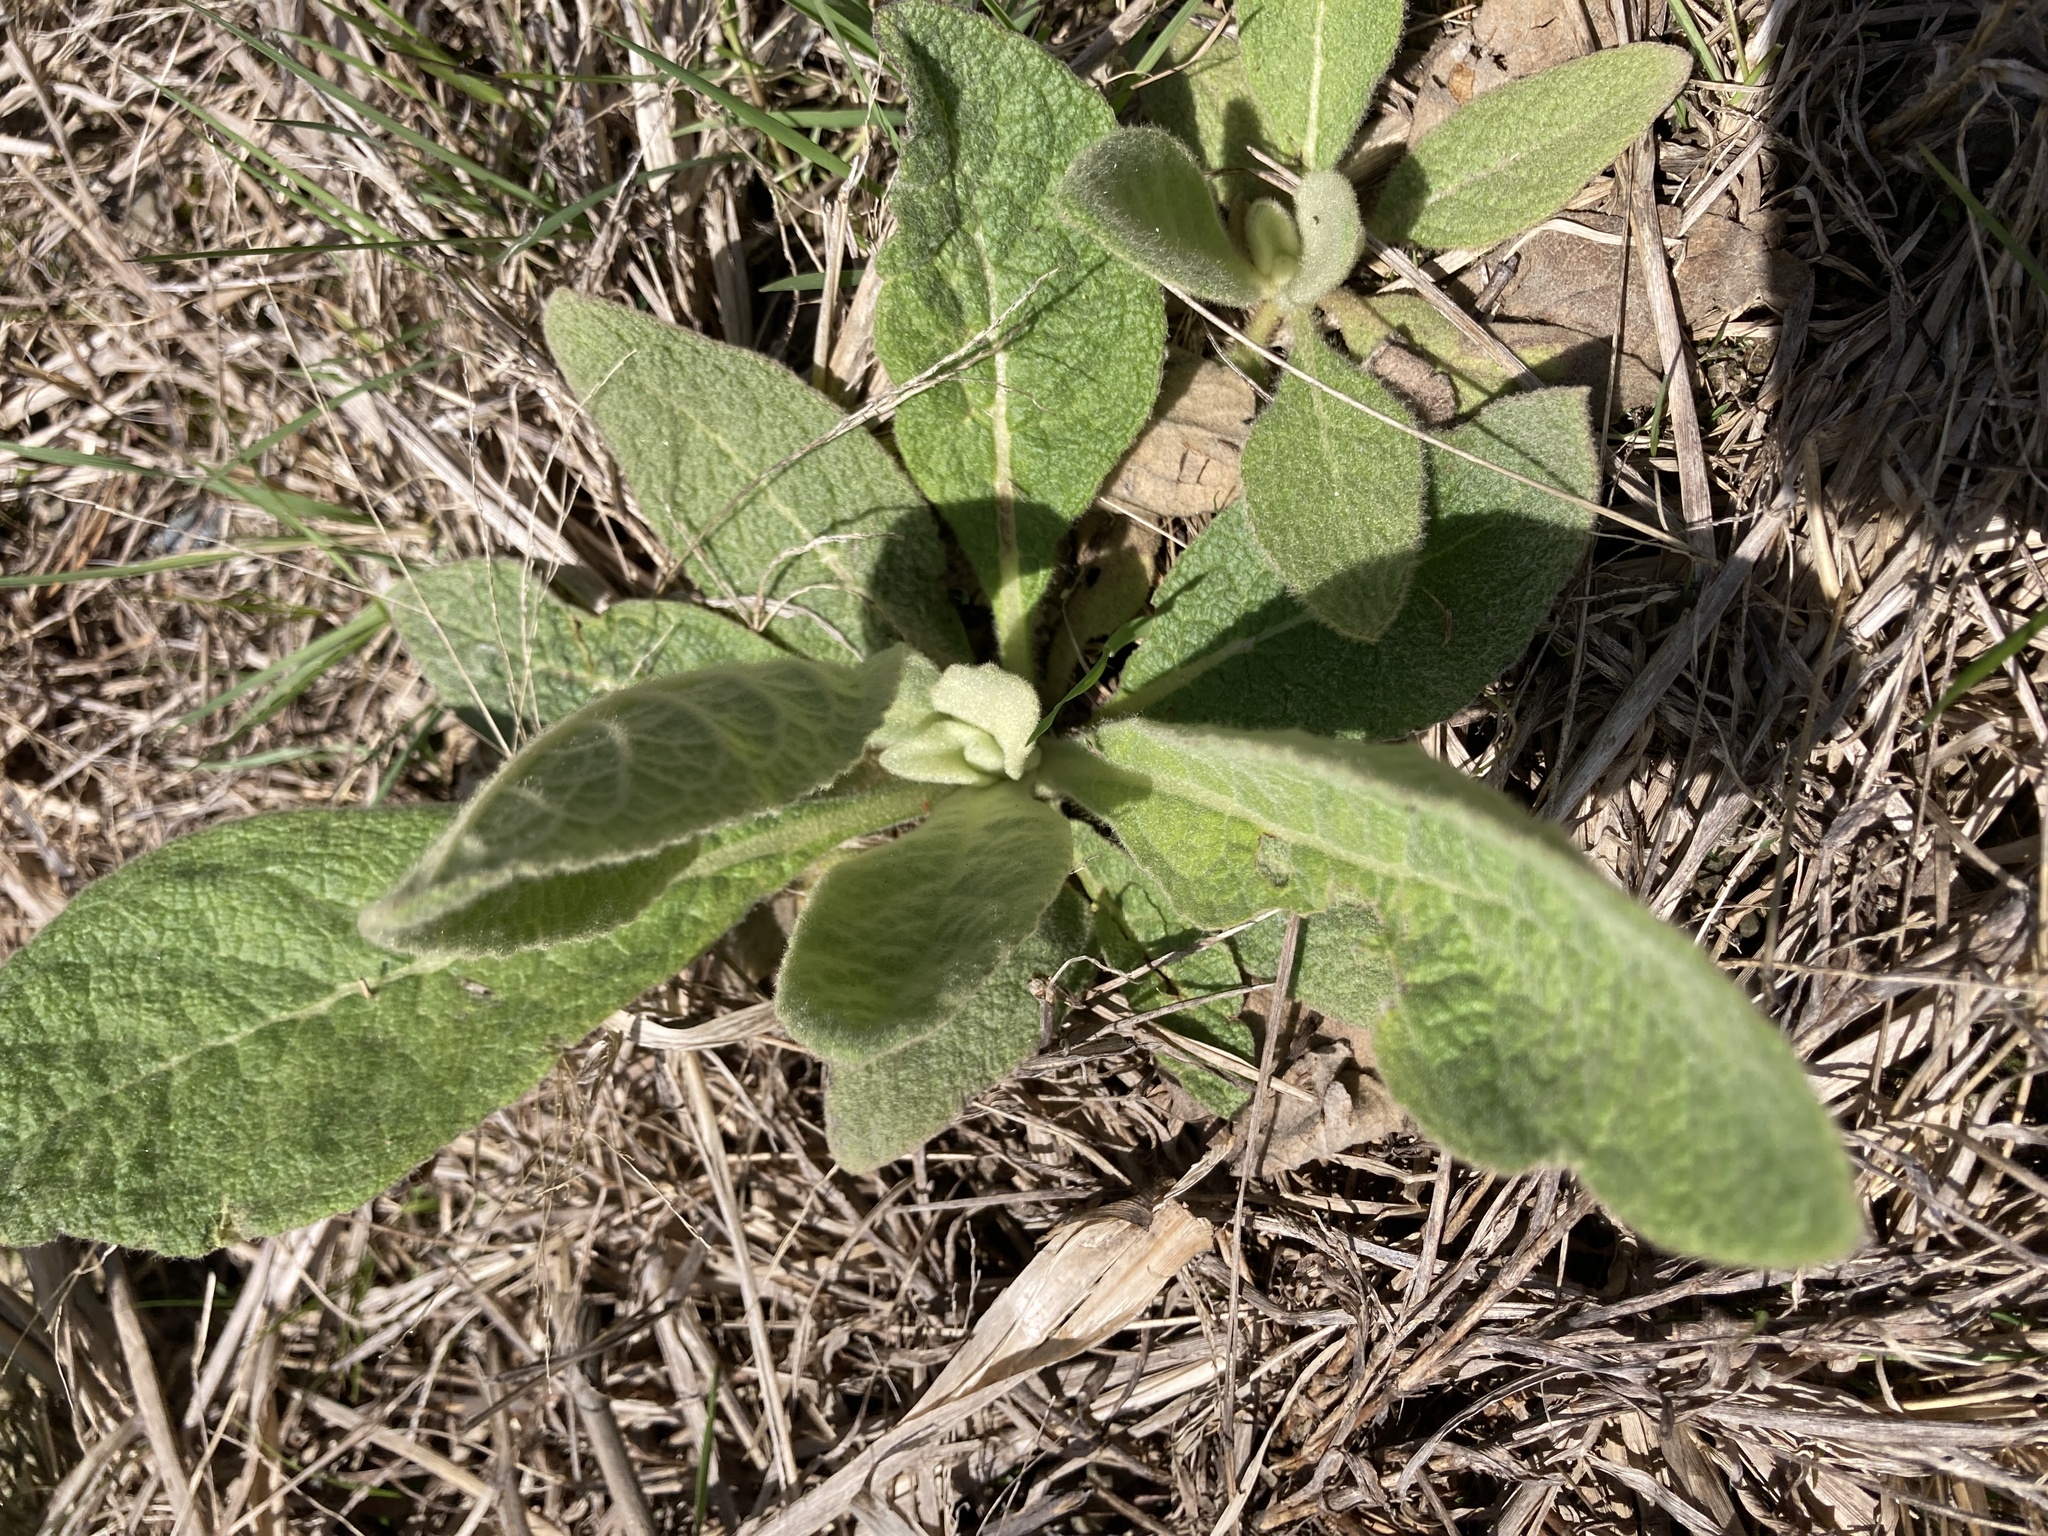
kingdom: Plantae
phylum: Tracheophyta
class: Magnoliopsida
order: Lamiales
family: Scrophulariaceae
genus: Verbascum
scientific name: Verbascum thapsus
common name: Common mullein
